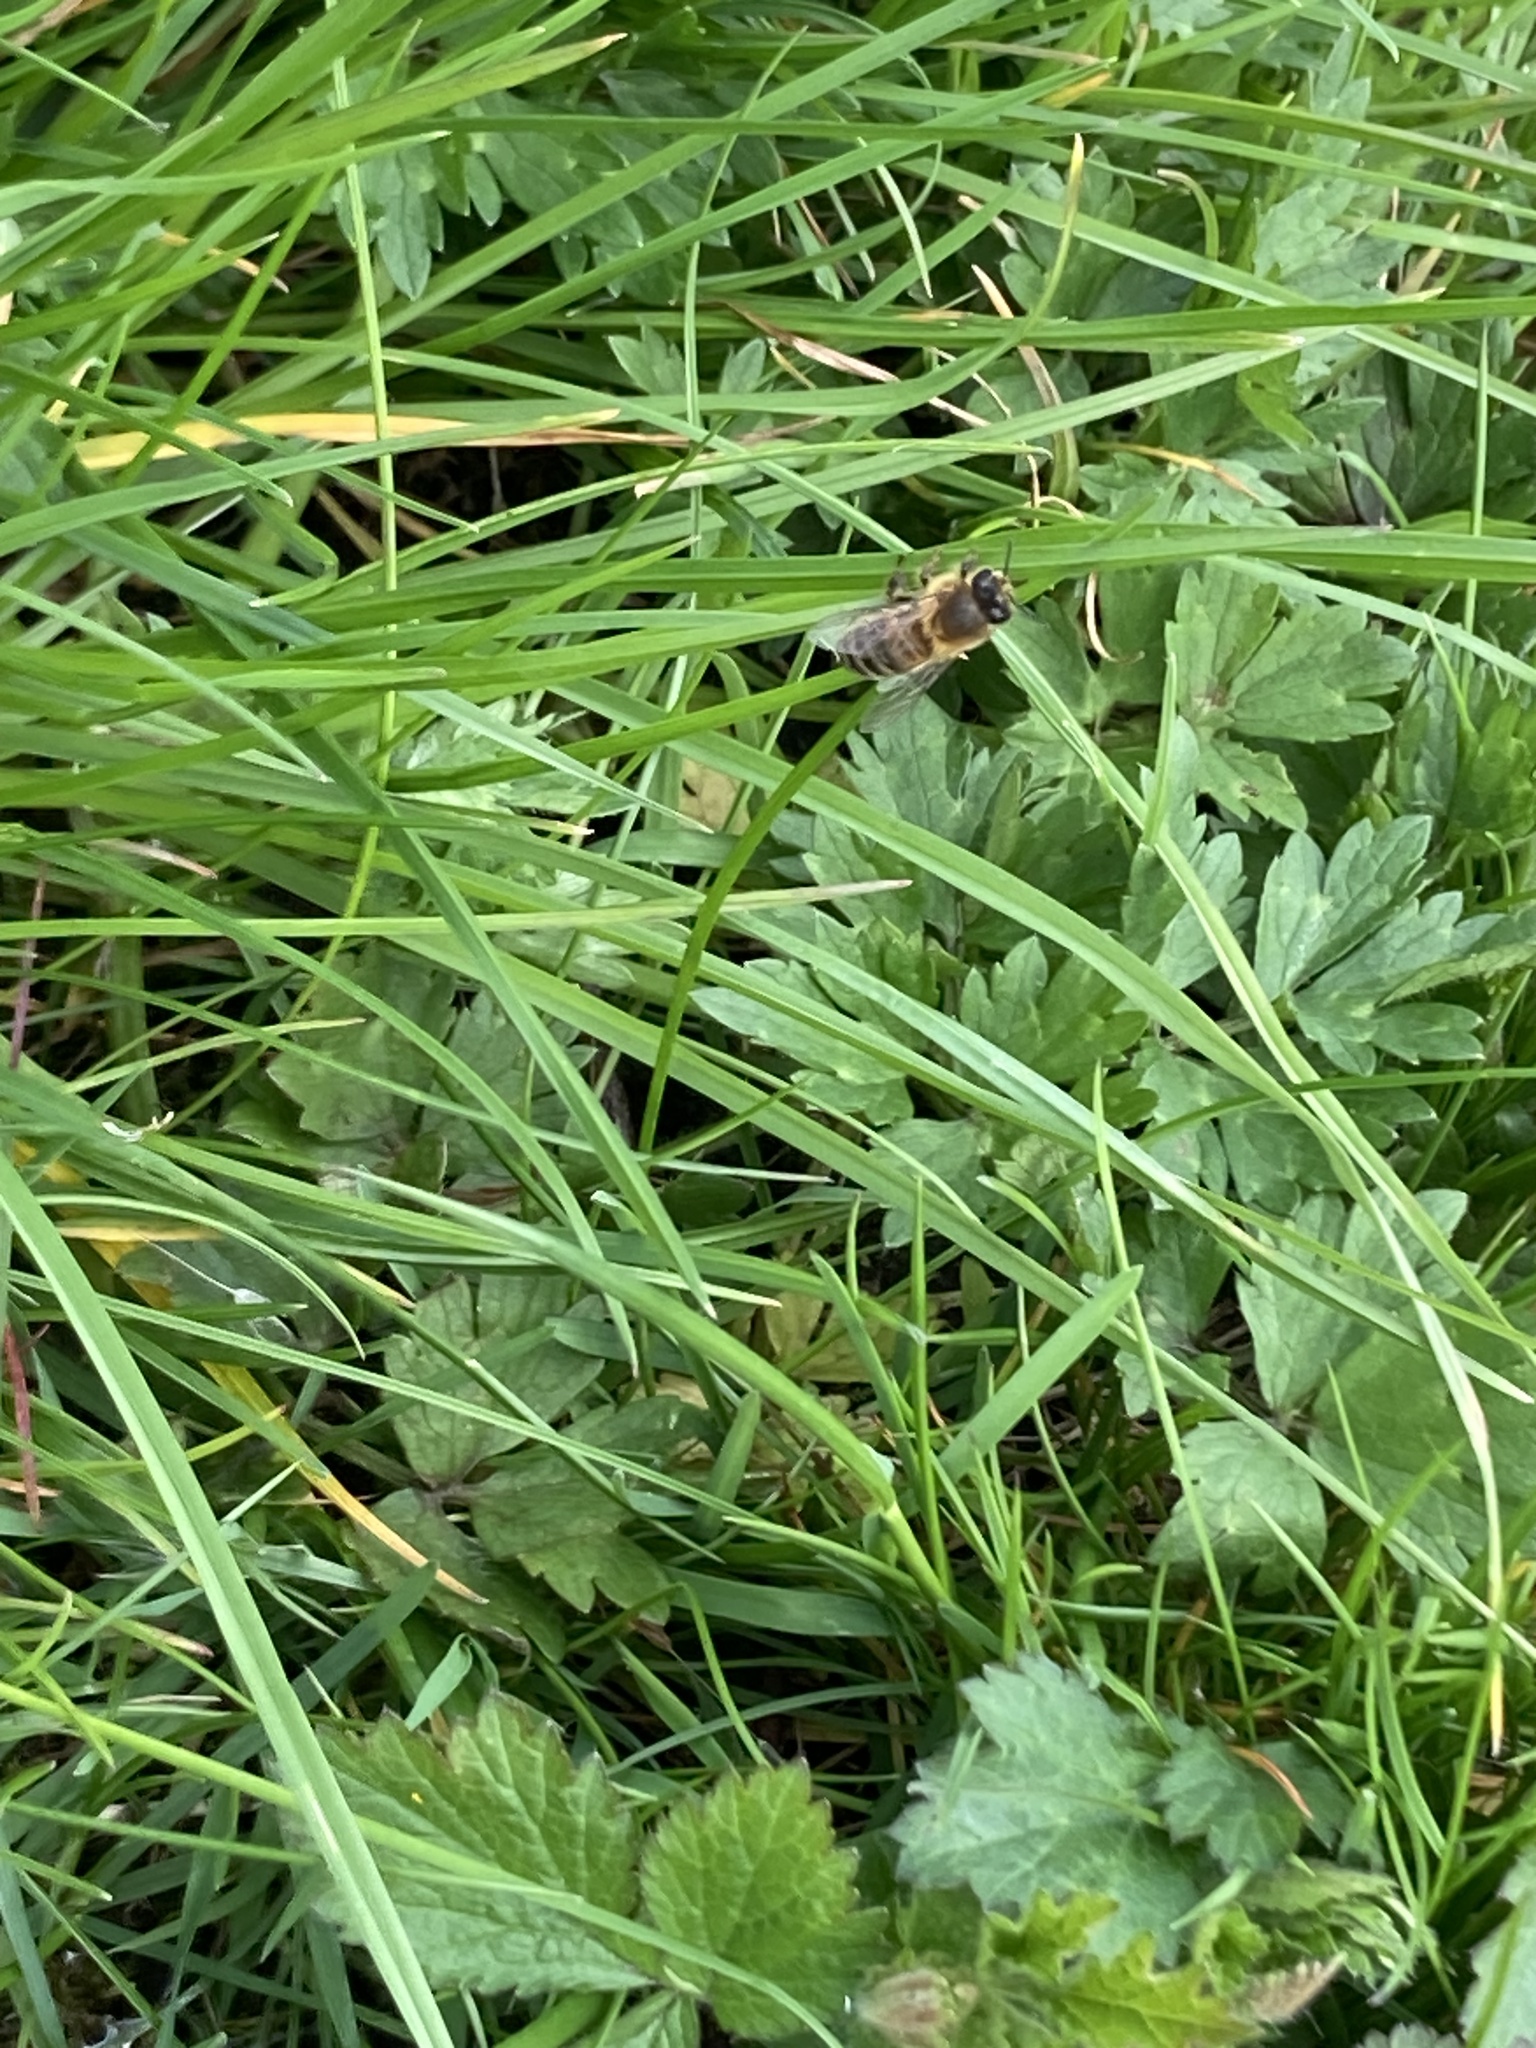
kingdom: Animalia
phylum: Arthropoda
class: Insecta
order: Hymenoptera
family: Apidae
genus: Apis
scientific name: Apis mellifera
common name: Honey bee
